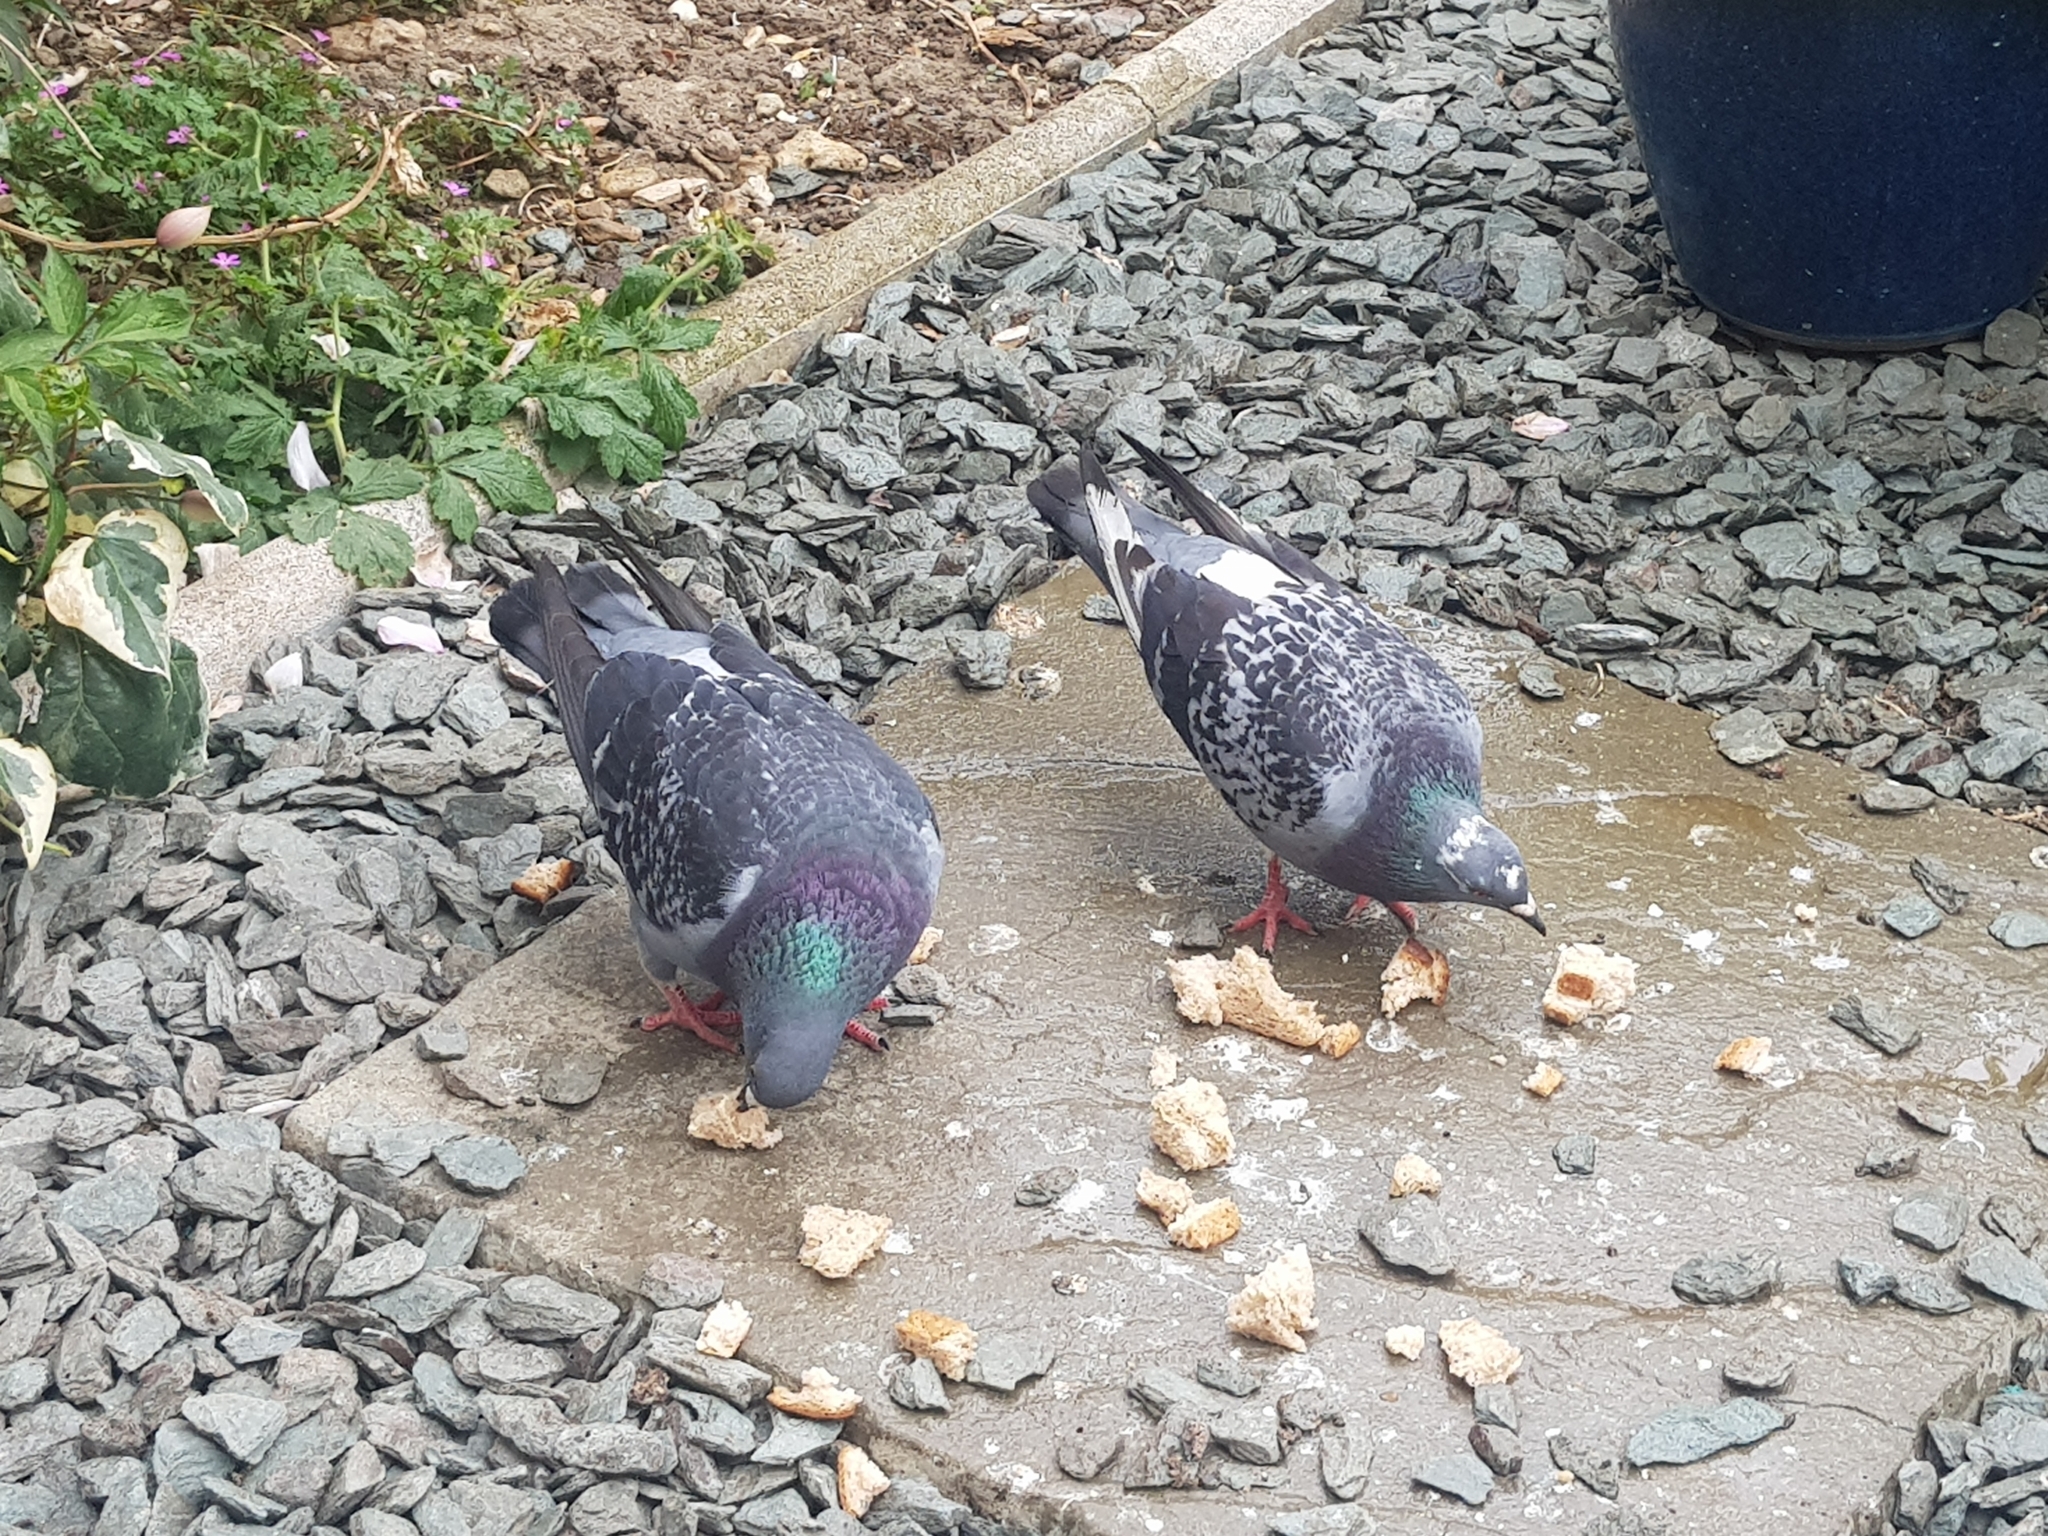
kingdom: Animalia
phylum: Chordata
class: Aves
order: Columbiformes
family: Columbidae
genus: Columba
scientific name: Columba livia
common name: Rock pigeon
